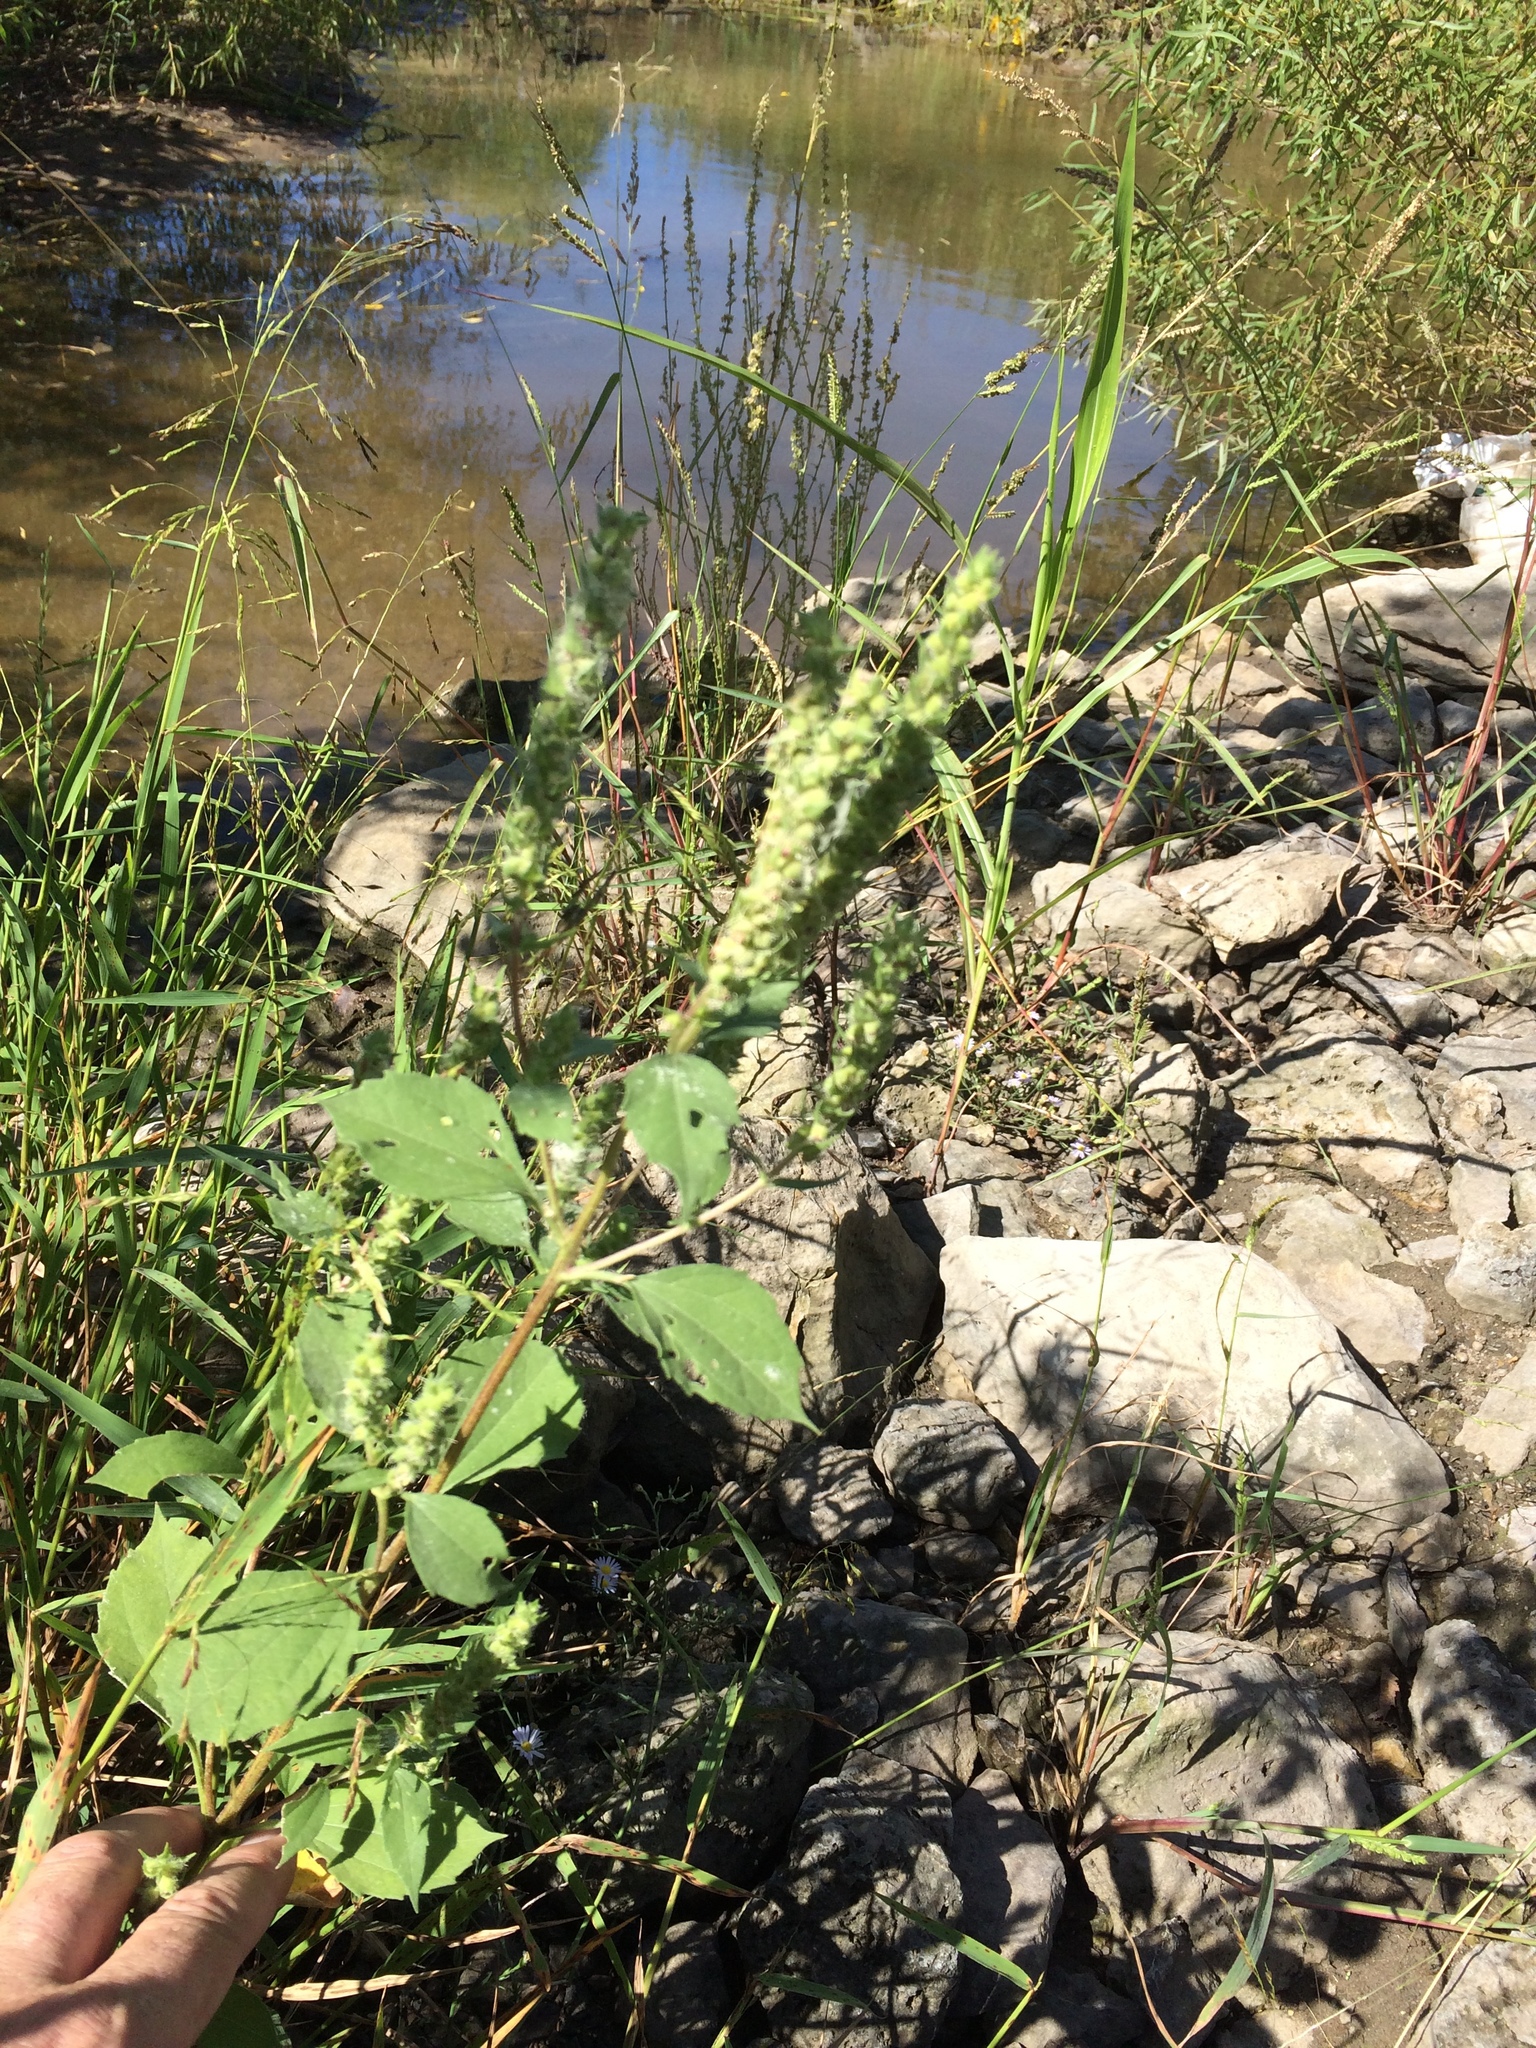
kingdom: Plantae
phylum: Tracheophyta
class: Magnoliopsida
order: Asterales
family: Asteraceae
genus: Iva
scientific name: Iva annua
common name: Marsh-elder
